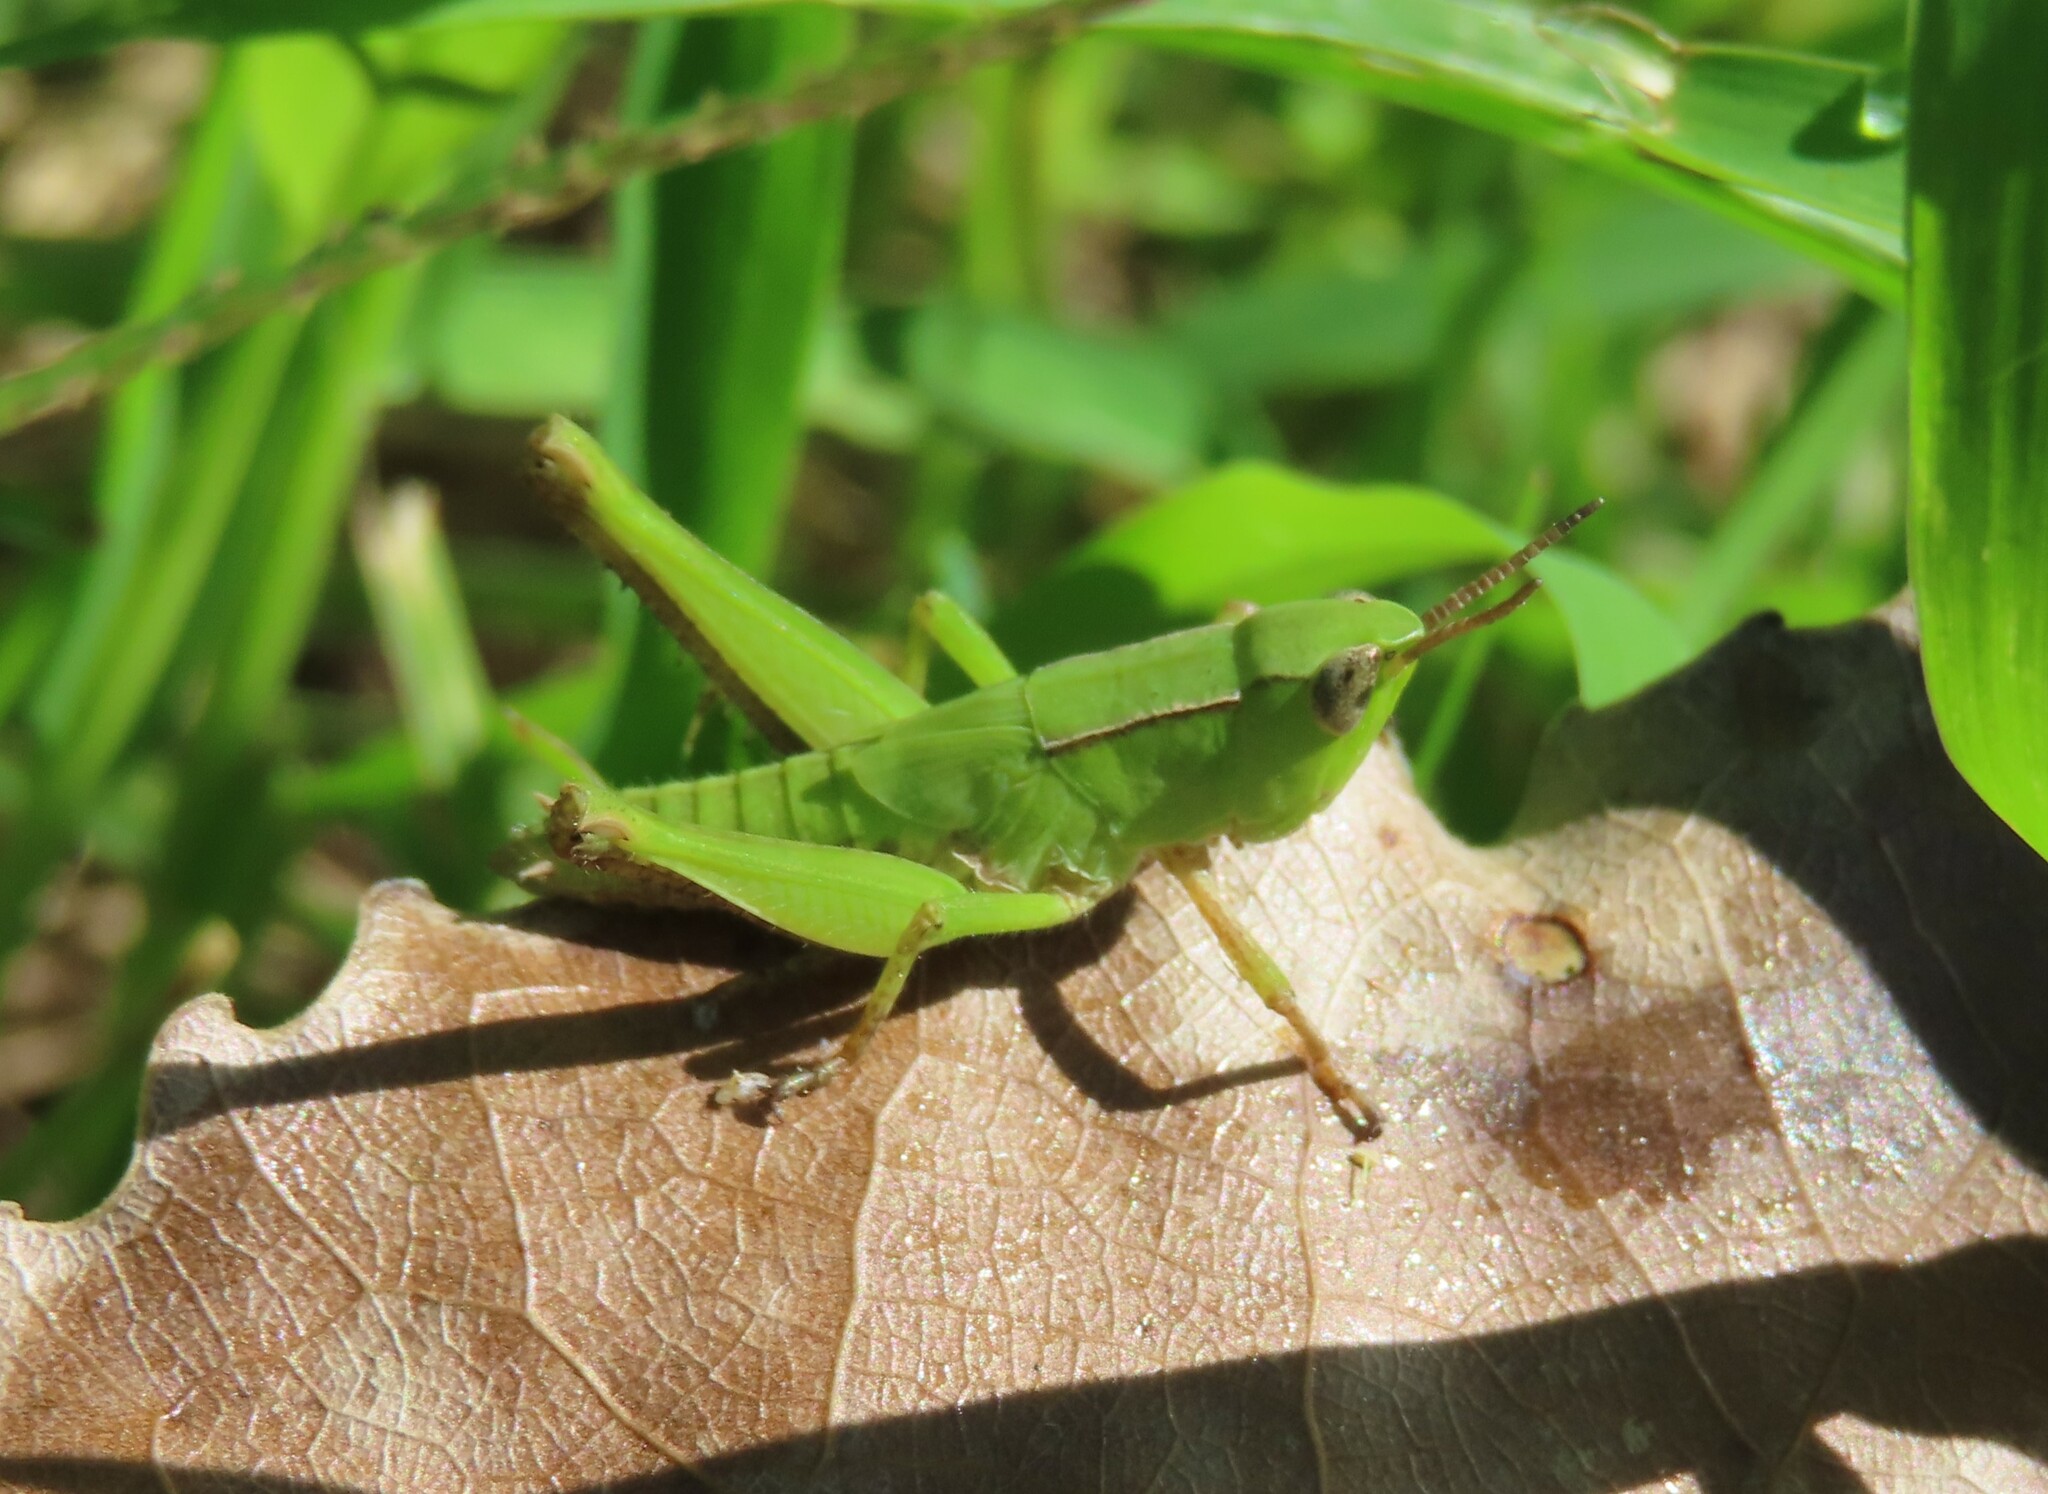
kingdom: Animalia
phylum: Arthropoda
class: Insecta
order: Orthoptera
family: Acrididae
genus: Dichromorpha
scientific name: Dichromorpha viridis
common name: Short-winged green grasshopper
